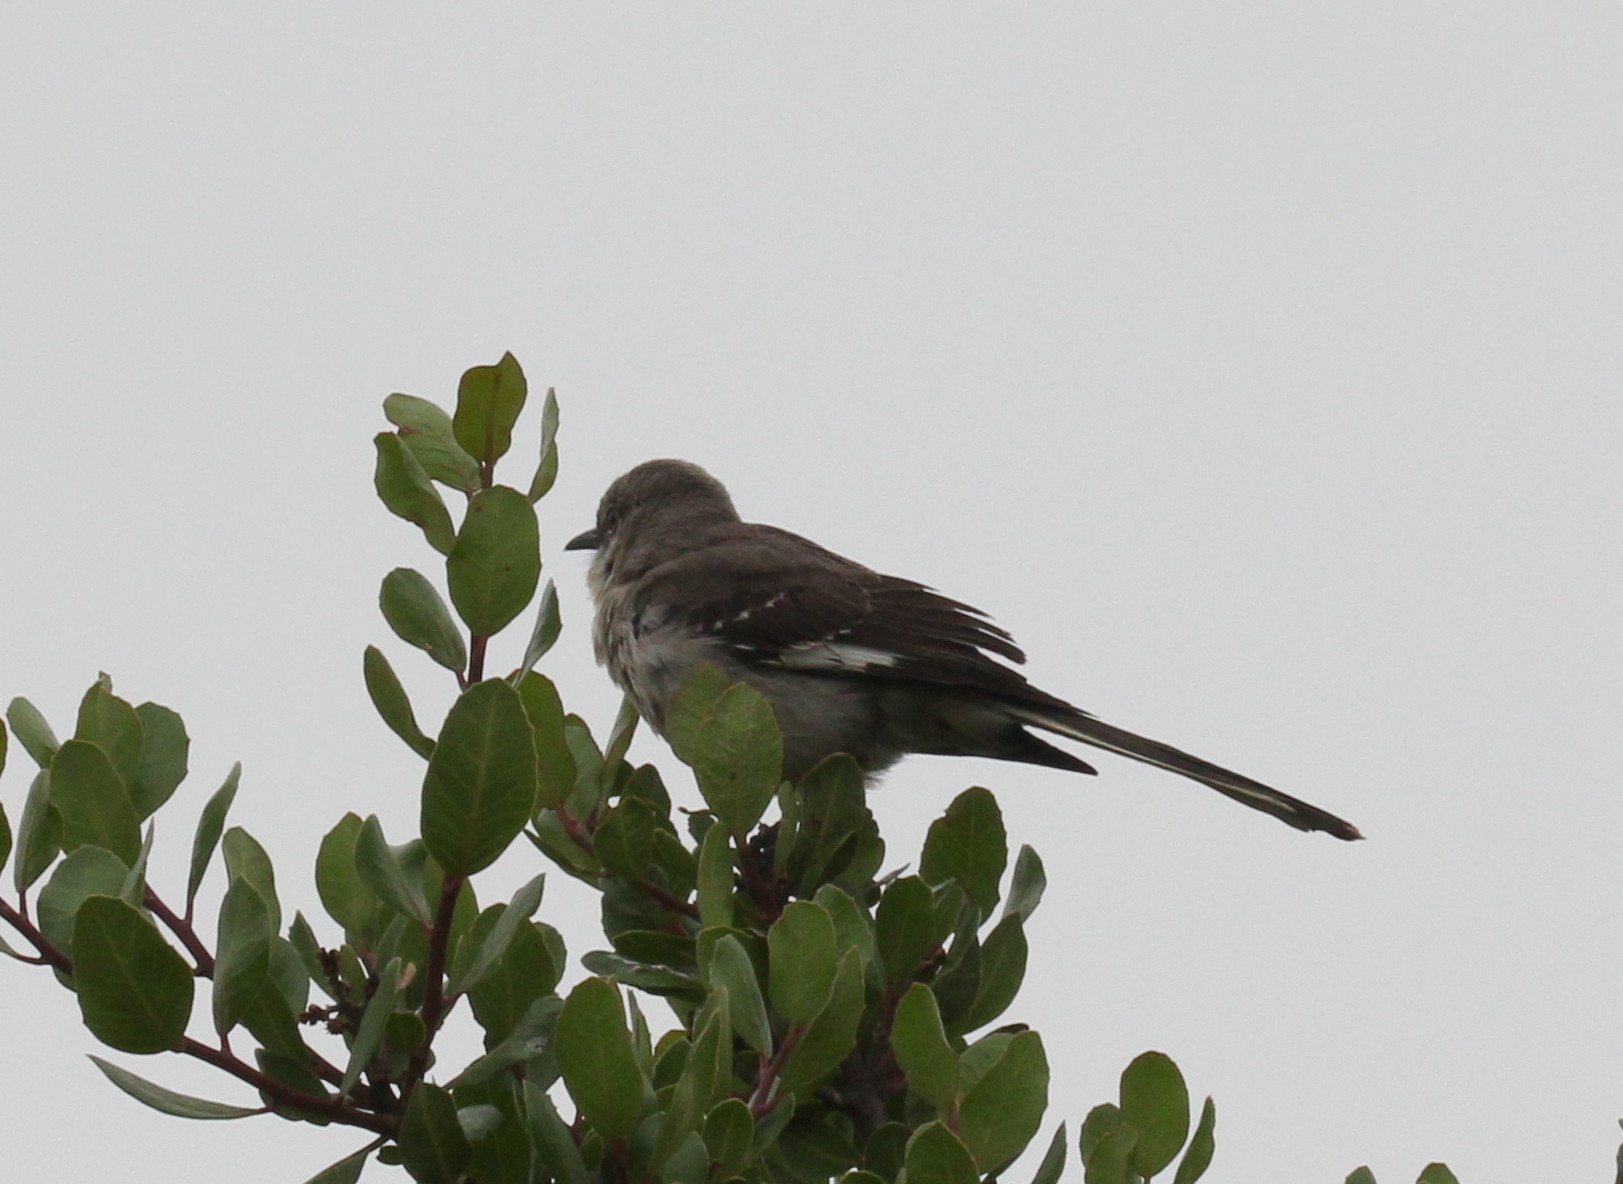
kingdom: Animalia
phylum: Chordata
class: Aves
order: Passeriformes
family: Mimidae
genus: Mimus
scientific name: Mimus polyglottos
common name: Northern mockingbird
